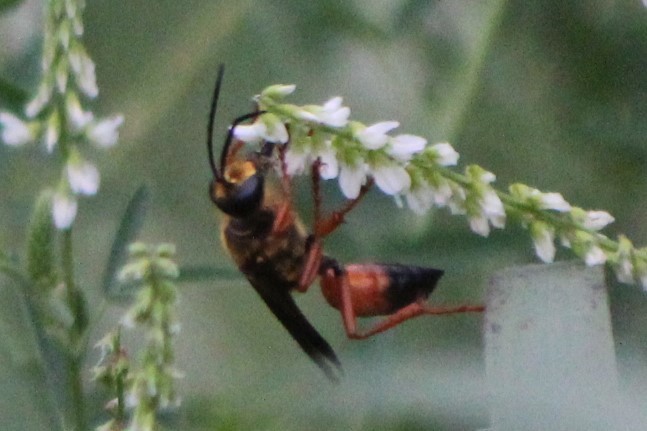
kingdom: Animalia
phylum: Arthropoda
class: Insecta
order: Hymenoptera
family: Sphecidae
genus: Sphex
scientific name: Sphex ichneumoneus
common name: Great golden digger wasp
